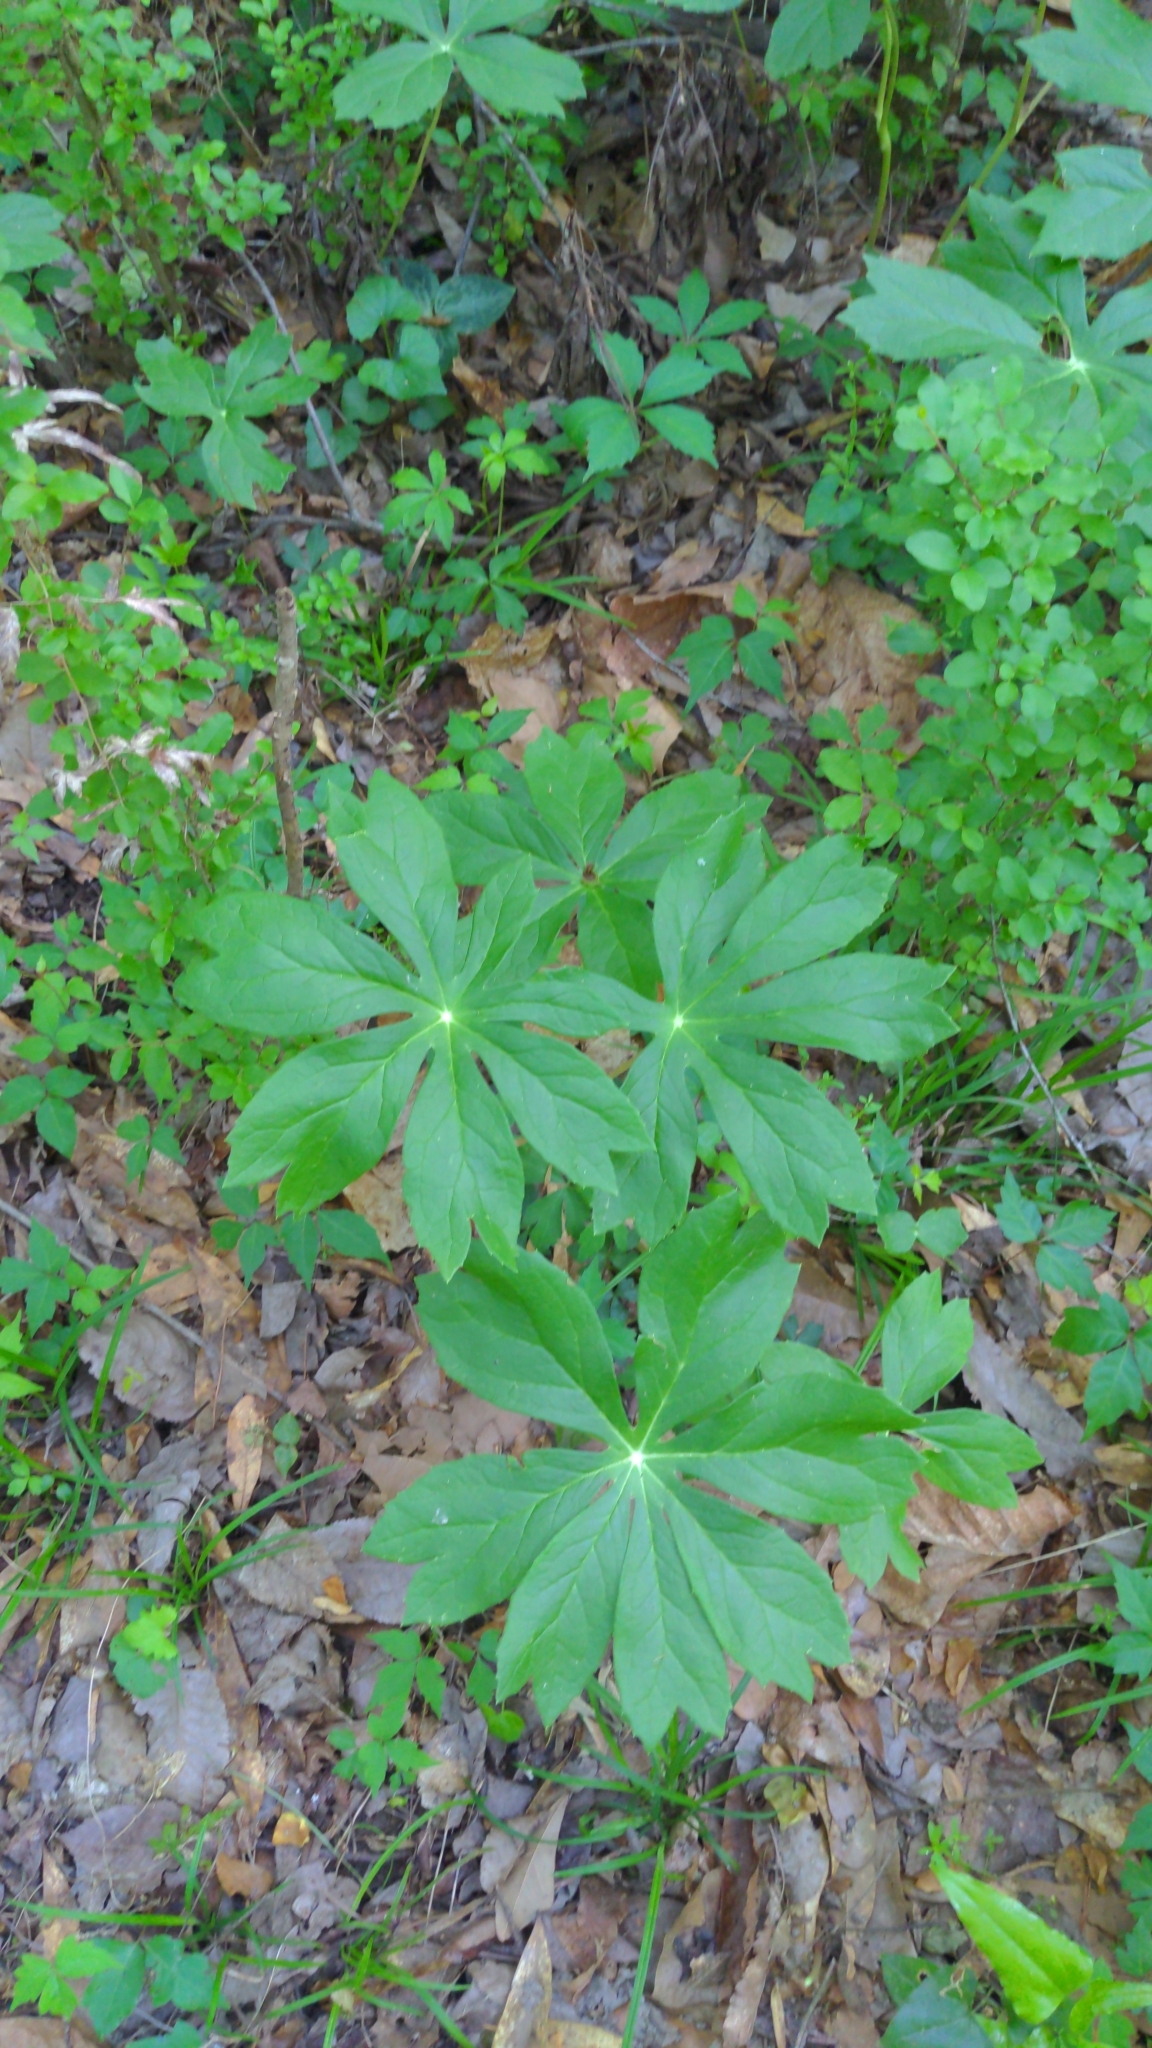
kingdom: Plantae
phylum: Tracheophyta
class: Magnoliopsida
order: Ranunculales
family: Berberidaceae
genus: Podophyllum
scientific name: Podophyllum peltatum
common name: Wild mandrake
